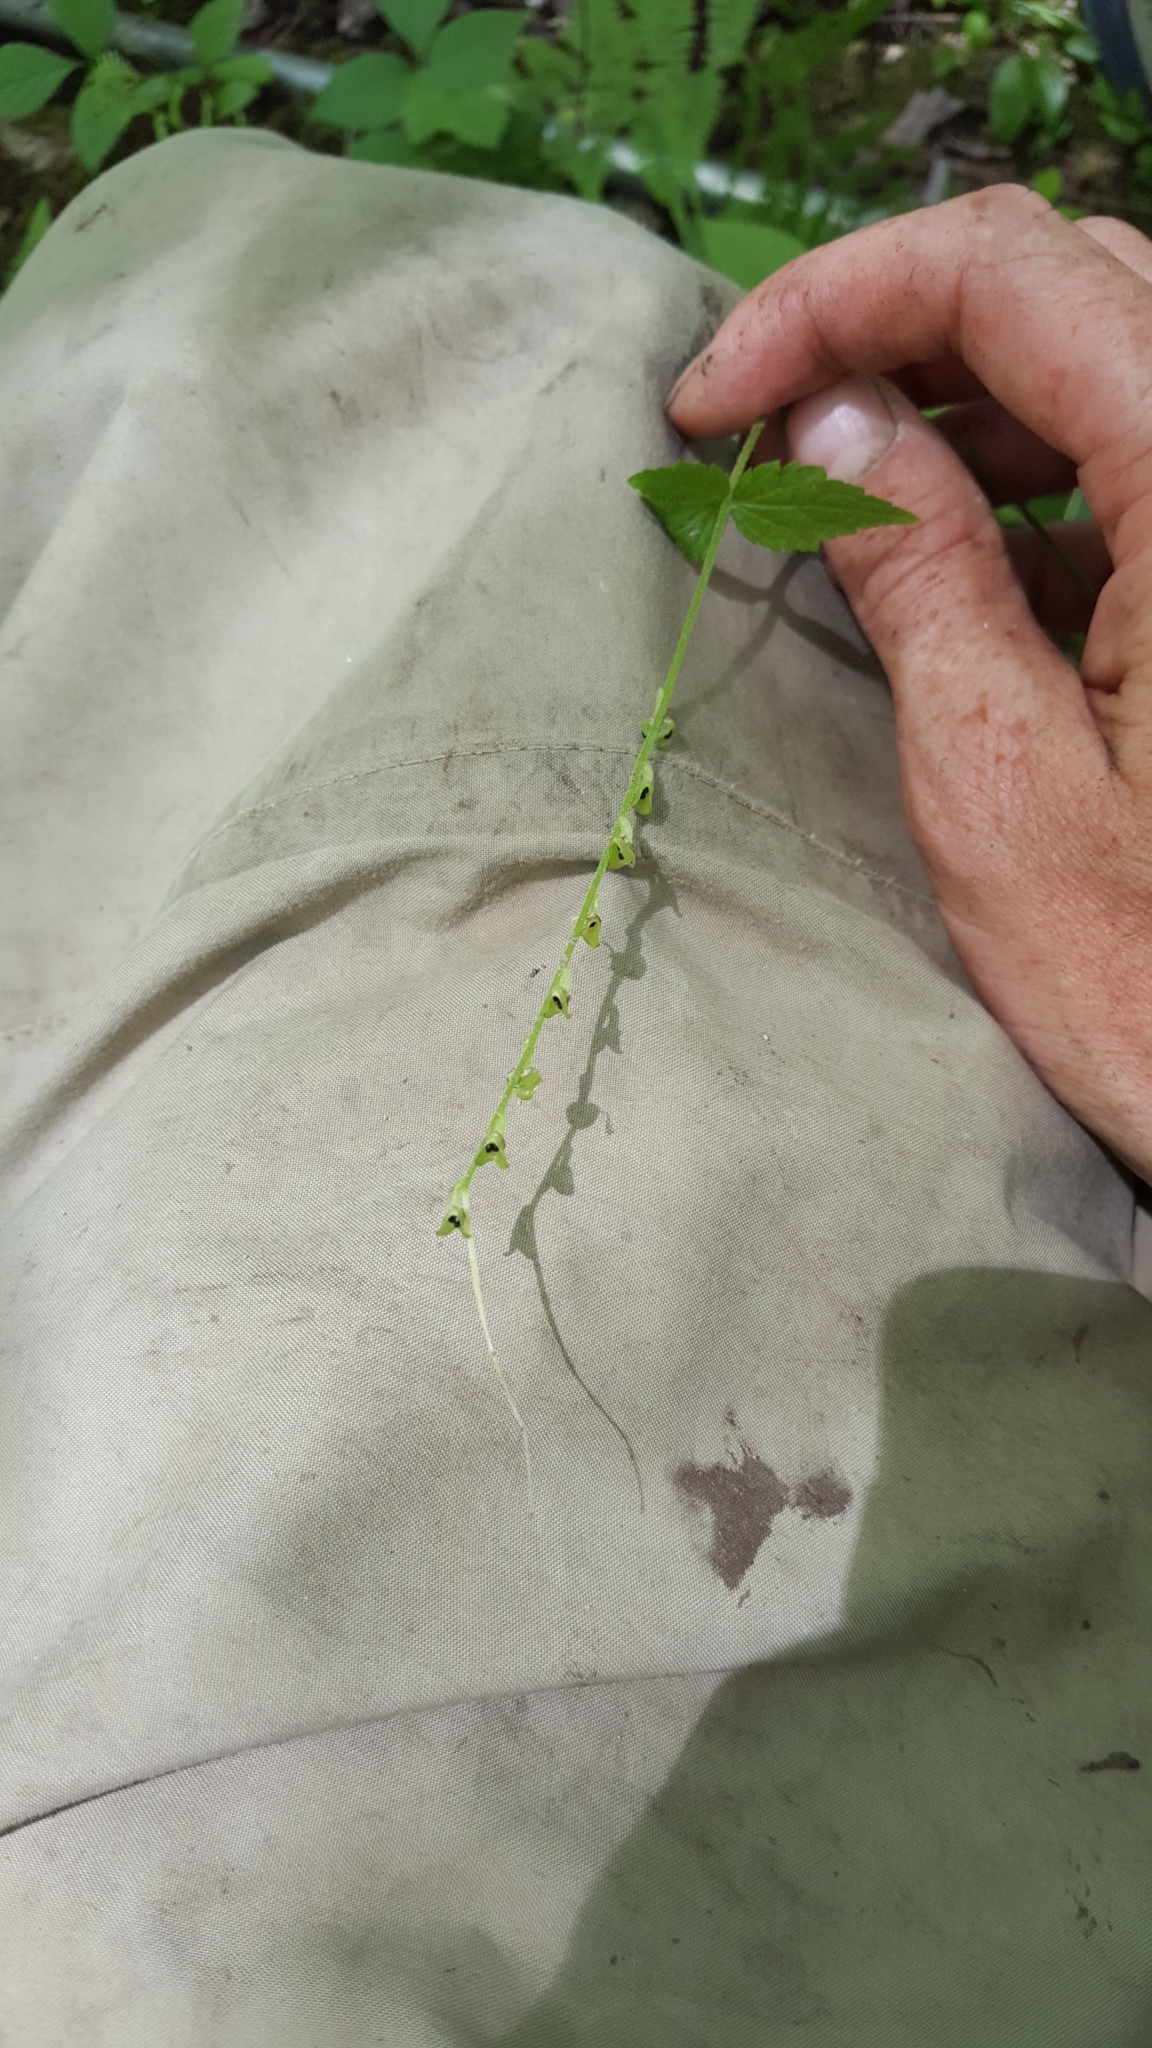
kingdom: Plantae
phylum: Tracheophyta
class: Magnoliopsida
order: Saxifragales
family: Saxifragaceae
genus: Mitella
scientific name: Mitella diphylla
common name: Coolwort
